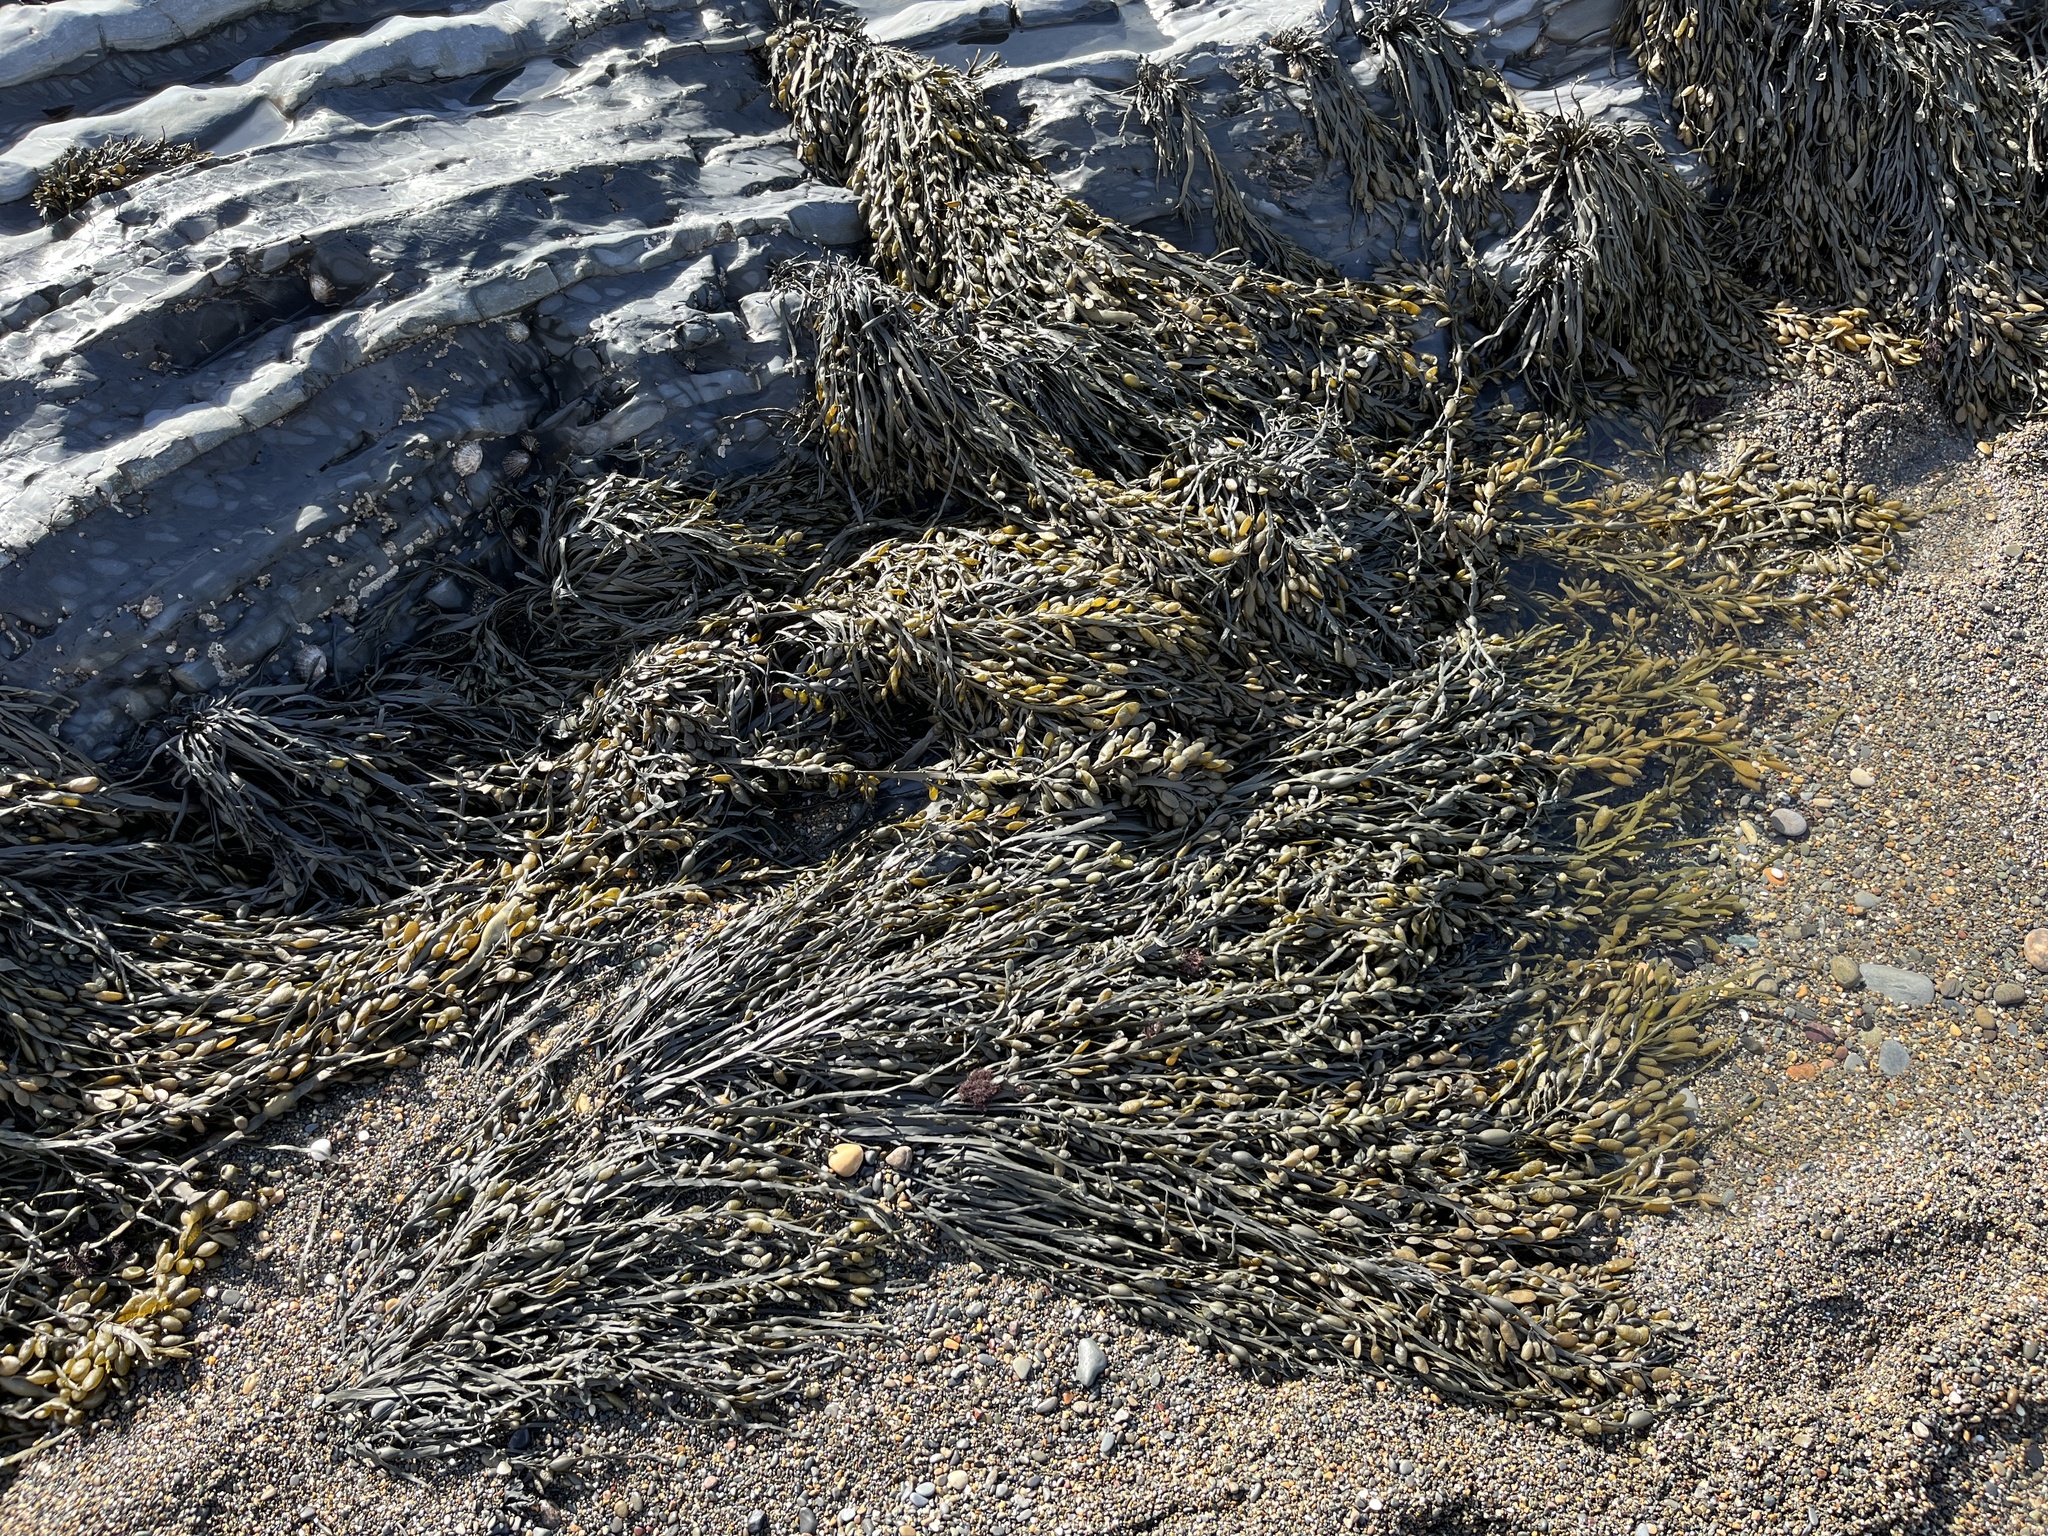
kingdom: Chromista
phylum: Ochrophyta
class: Phaeophyceae
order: Fucales
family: Fucaceae
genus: Ascophyllum
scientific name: Ascophyllum nodosum
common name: Knotted wrack
